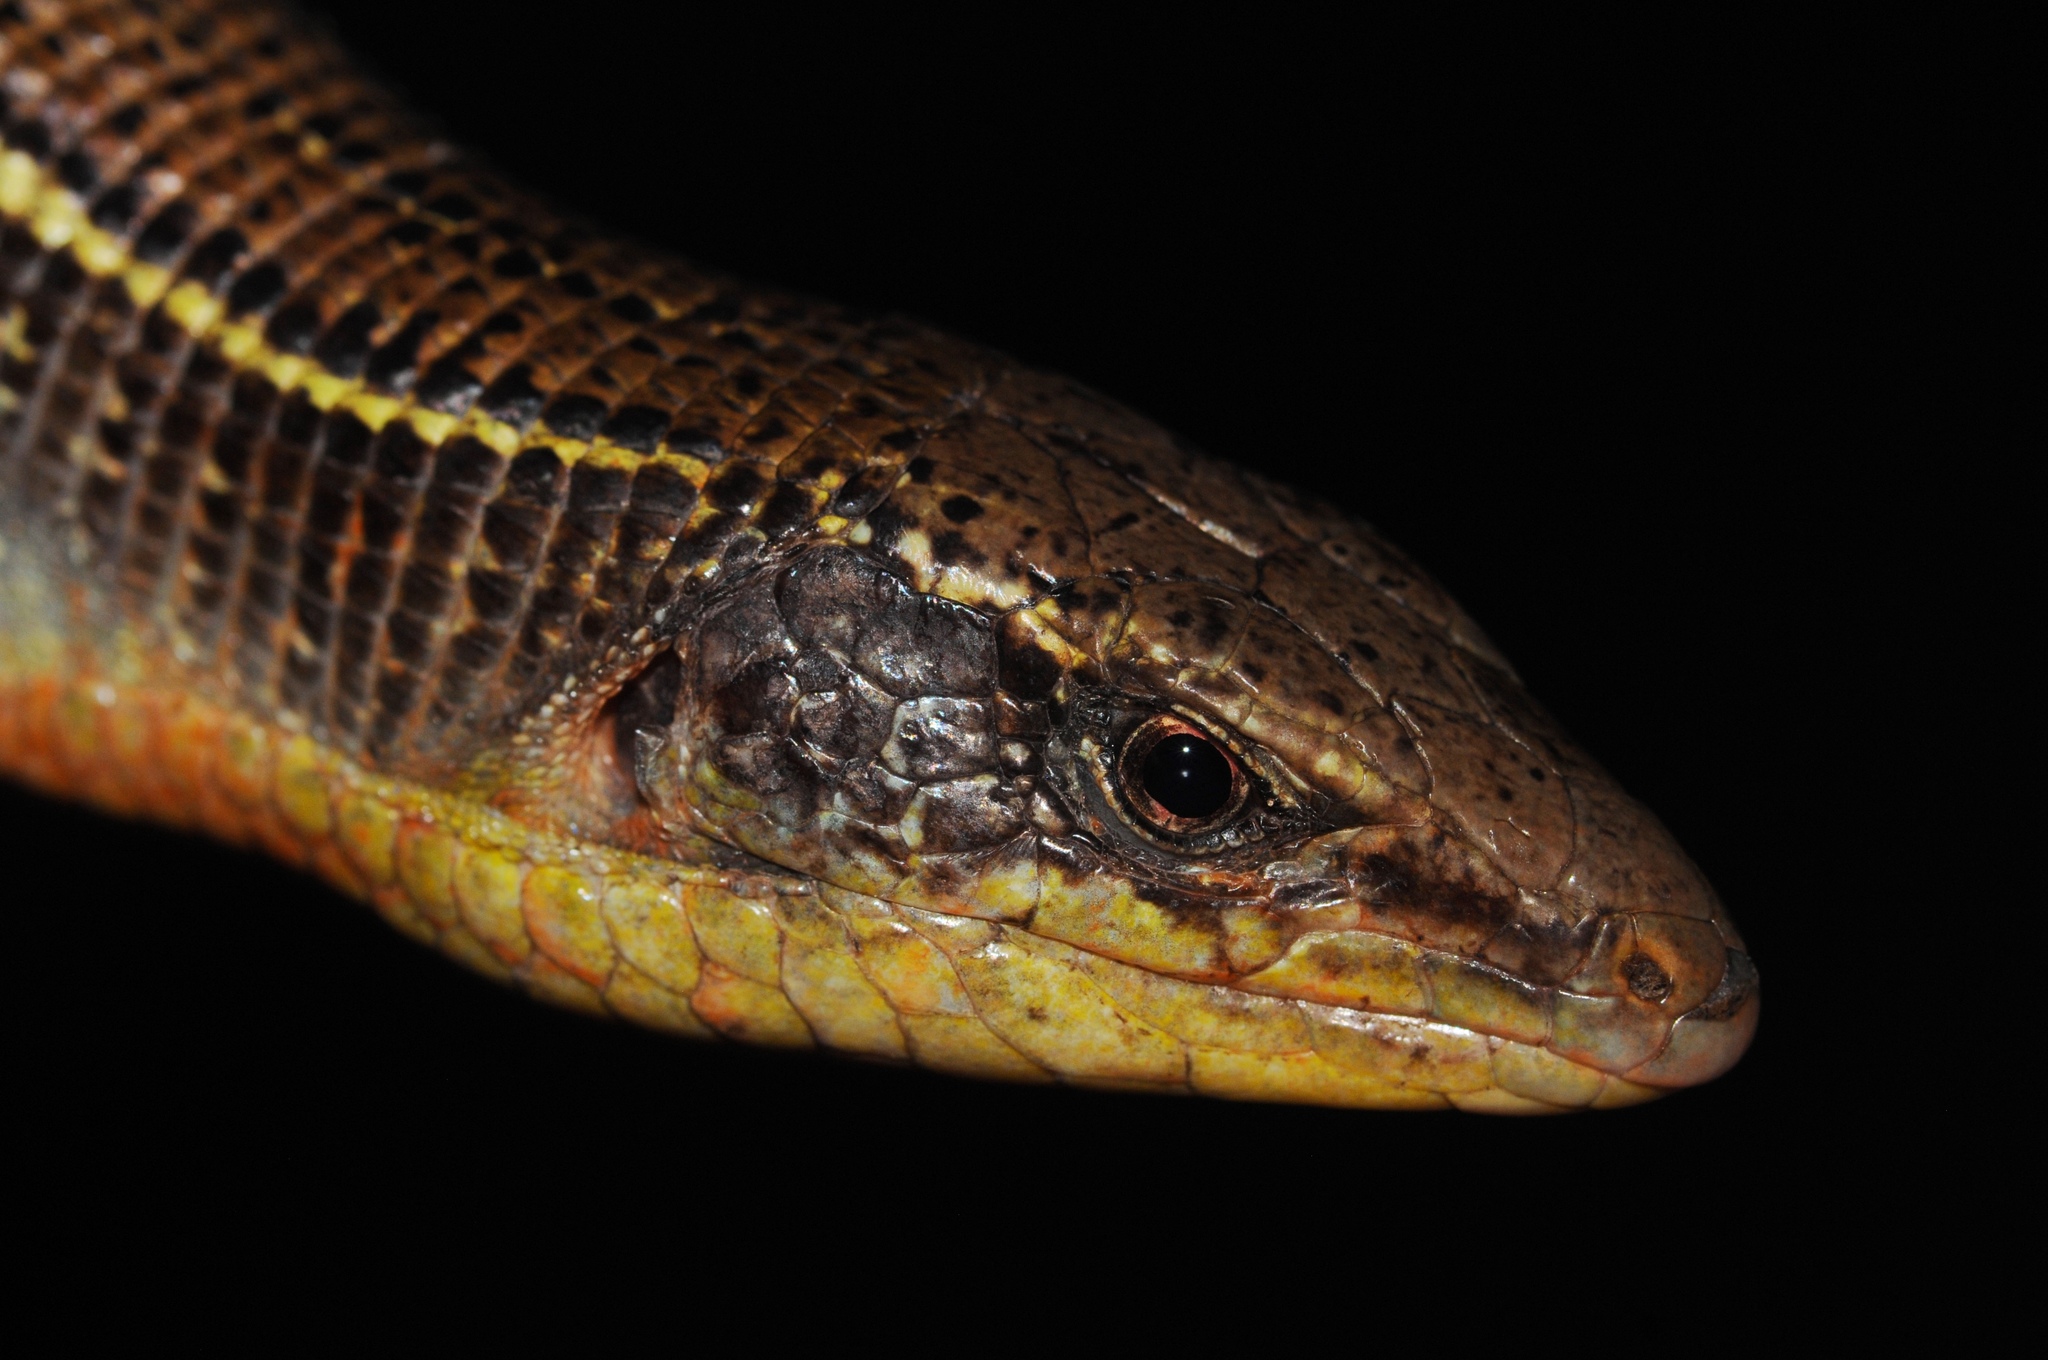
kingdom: Animalia
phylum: Chordata
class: Squamata
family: Gerrhosauridae
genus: Gerrhosaurus
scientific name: Gerrhosaurus nigrolineatus
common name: Black-lined plated lizard
